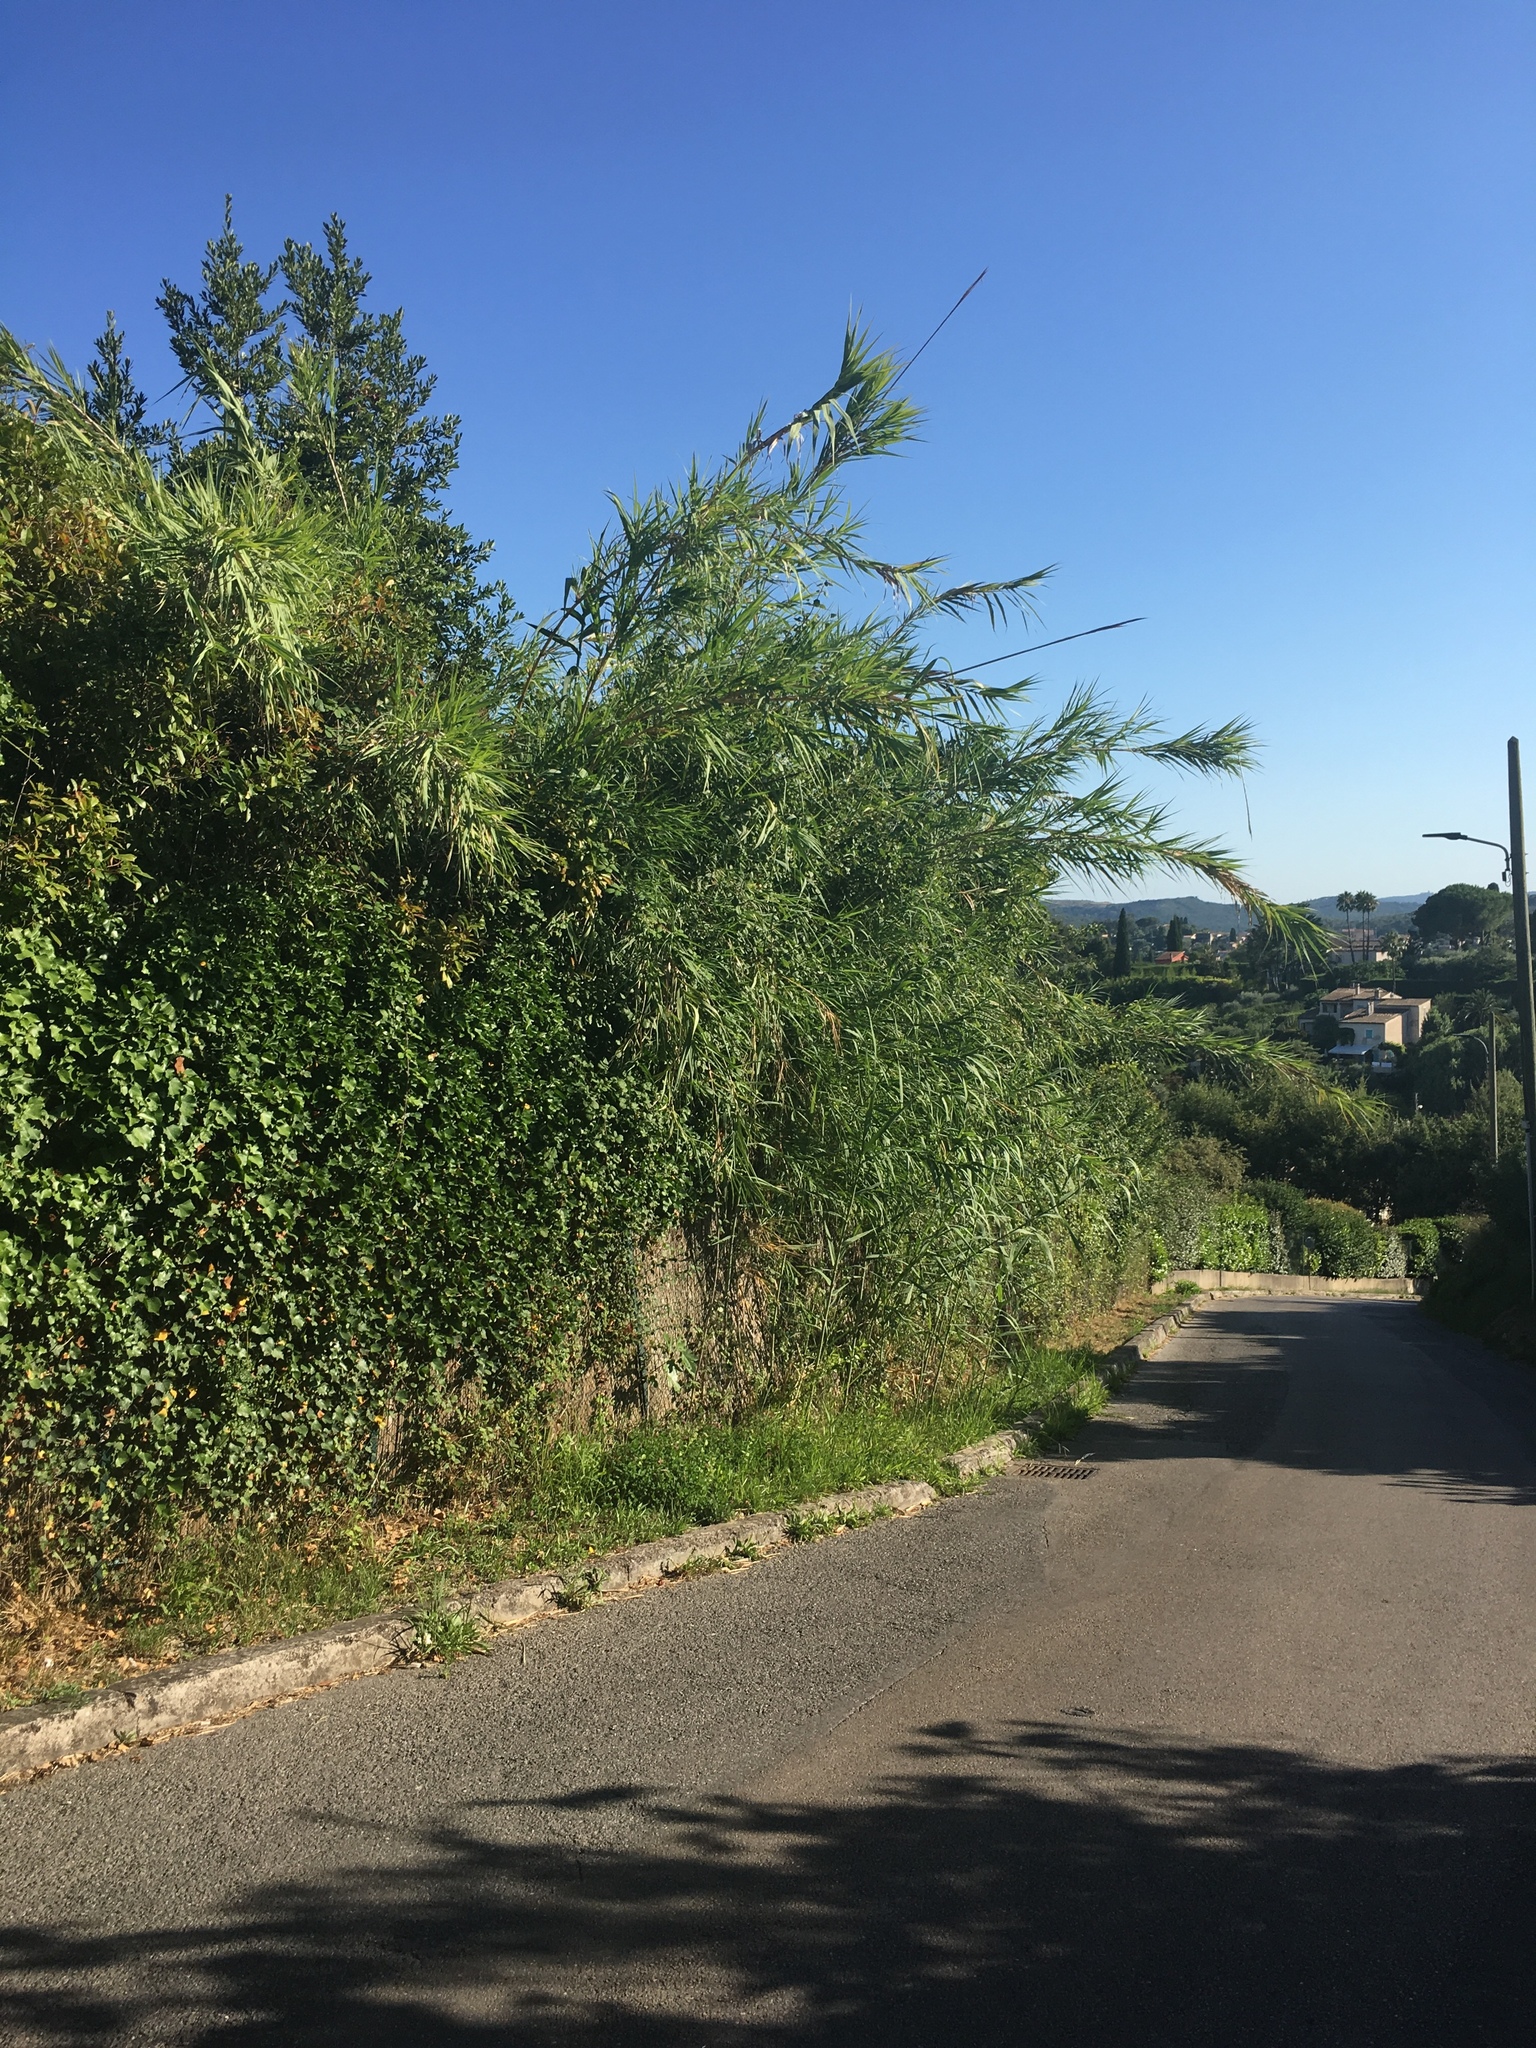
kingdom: Plantae
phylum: Tracheophyta
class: Liliopsida
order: Poales
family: Poaceae
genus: Arundo
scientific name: Arundo donax
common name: Giant reed
